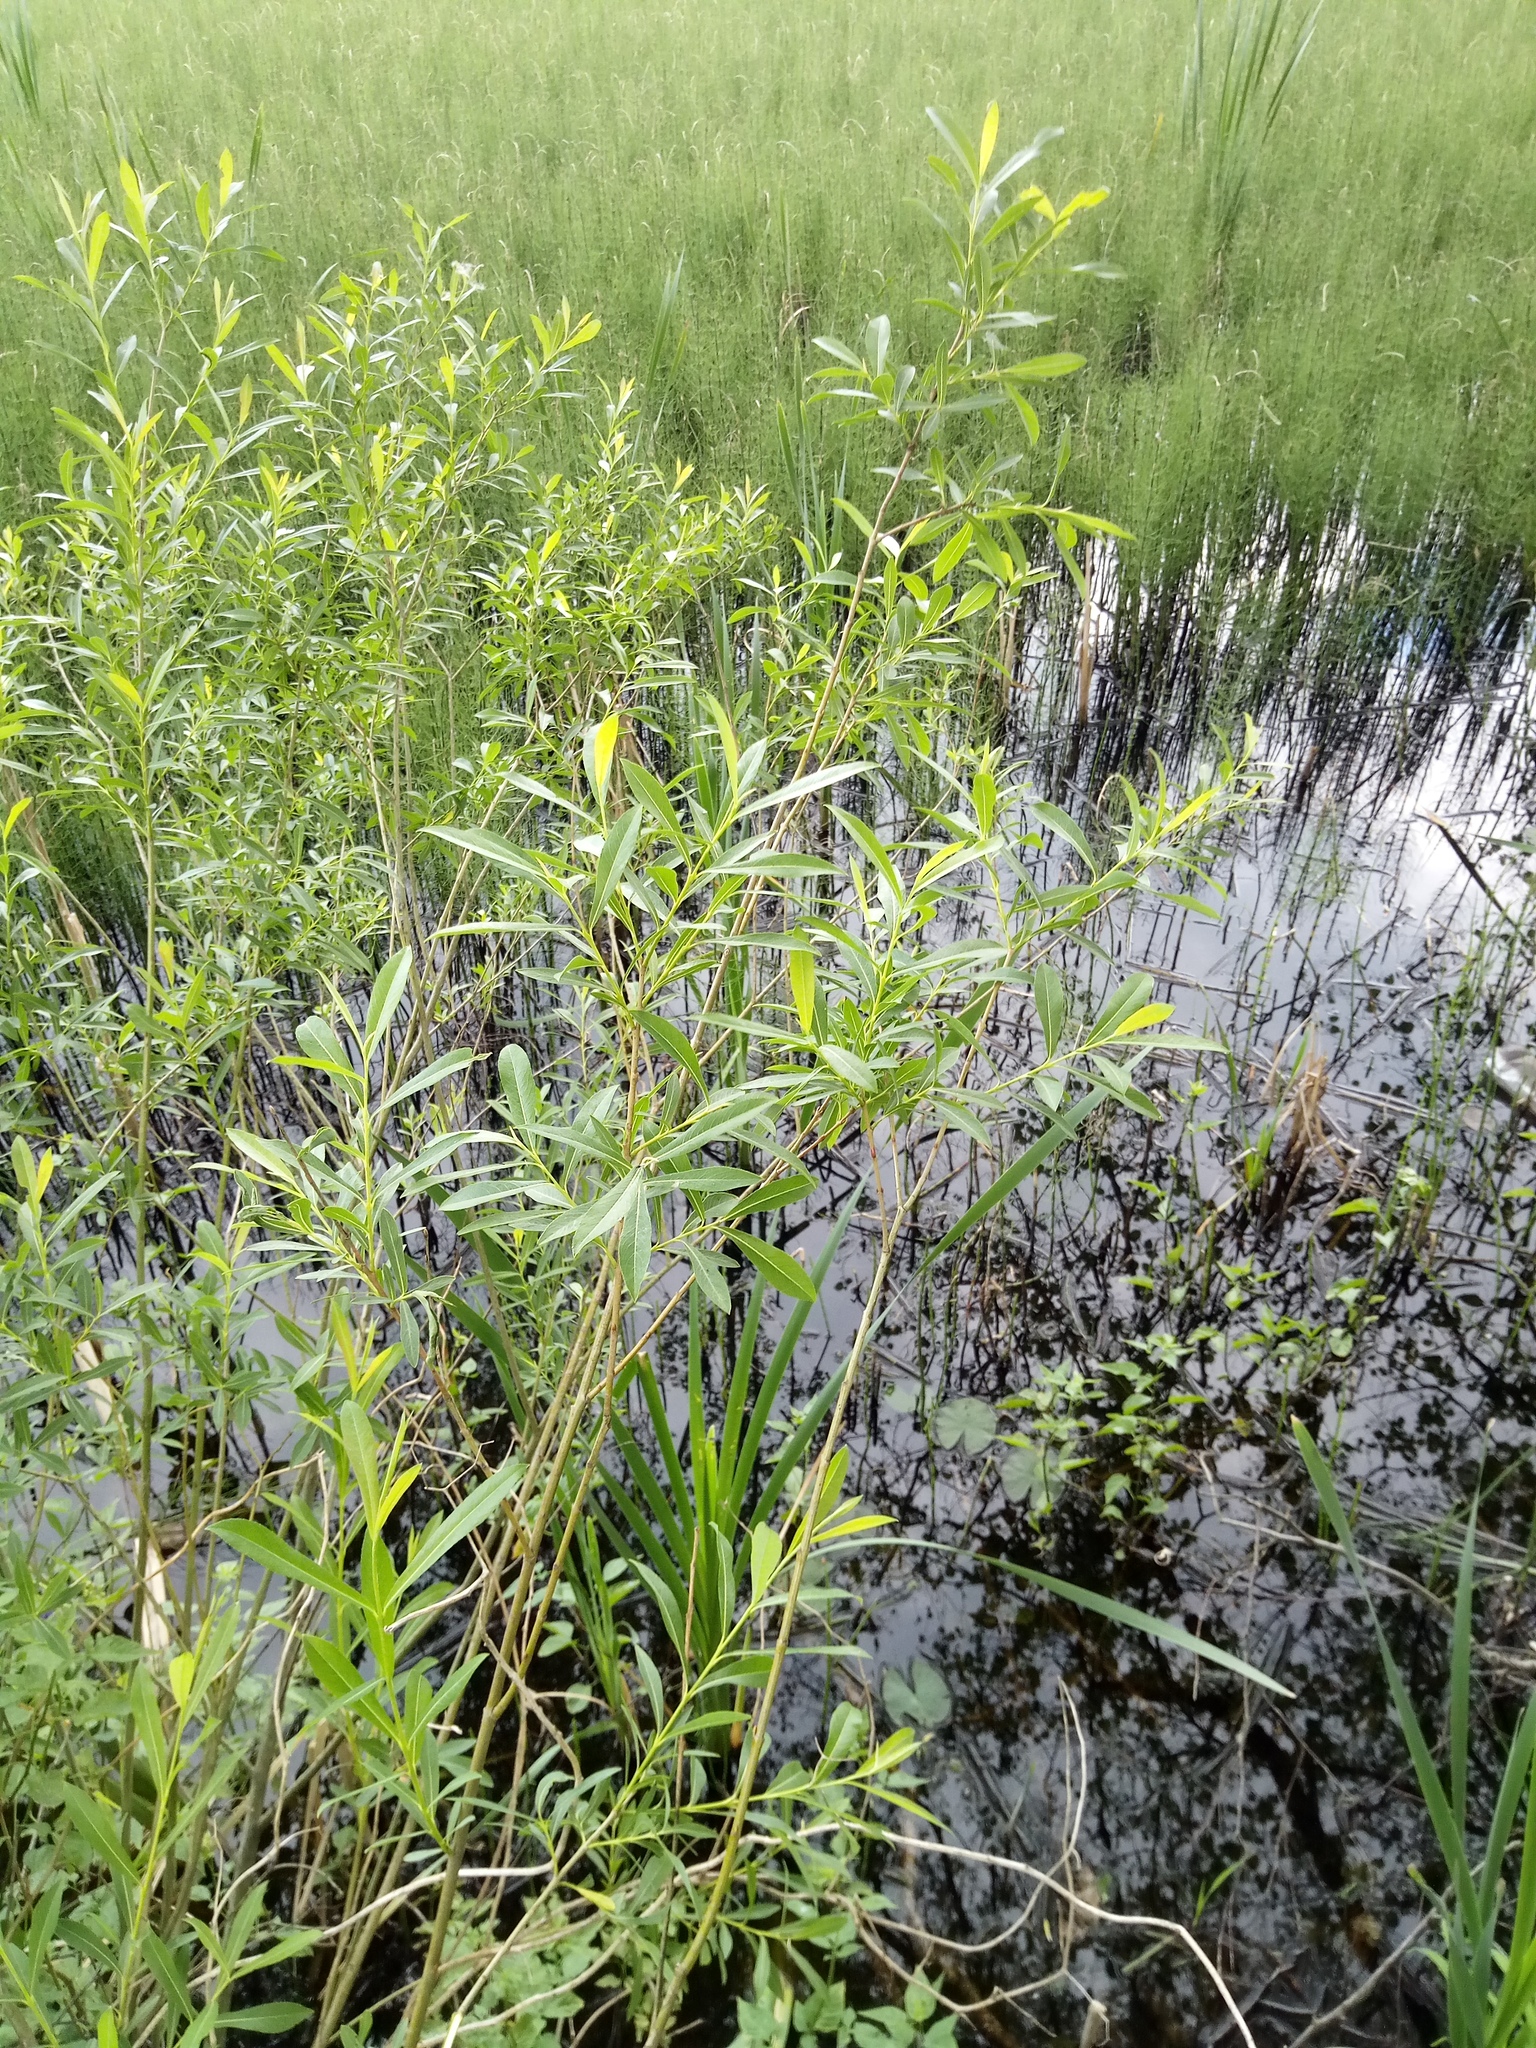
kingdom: Plantae
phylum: Tracheophyta
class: Magnoliopsida
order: Malpighiales
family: Salicaceae
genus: Salix
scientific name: Salix purpurea
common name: Purple willow
